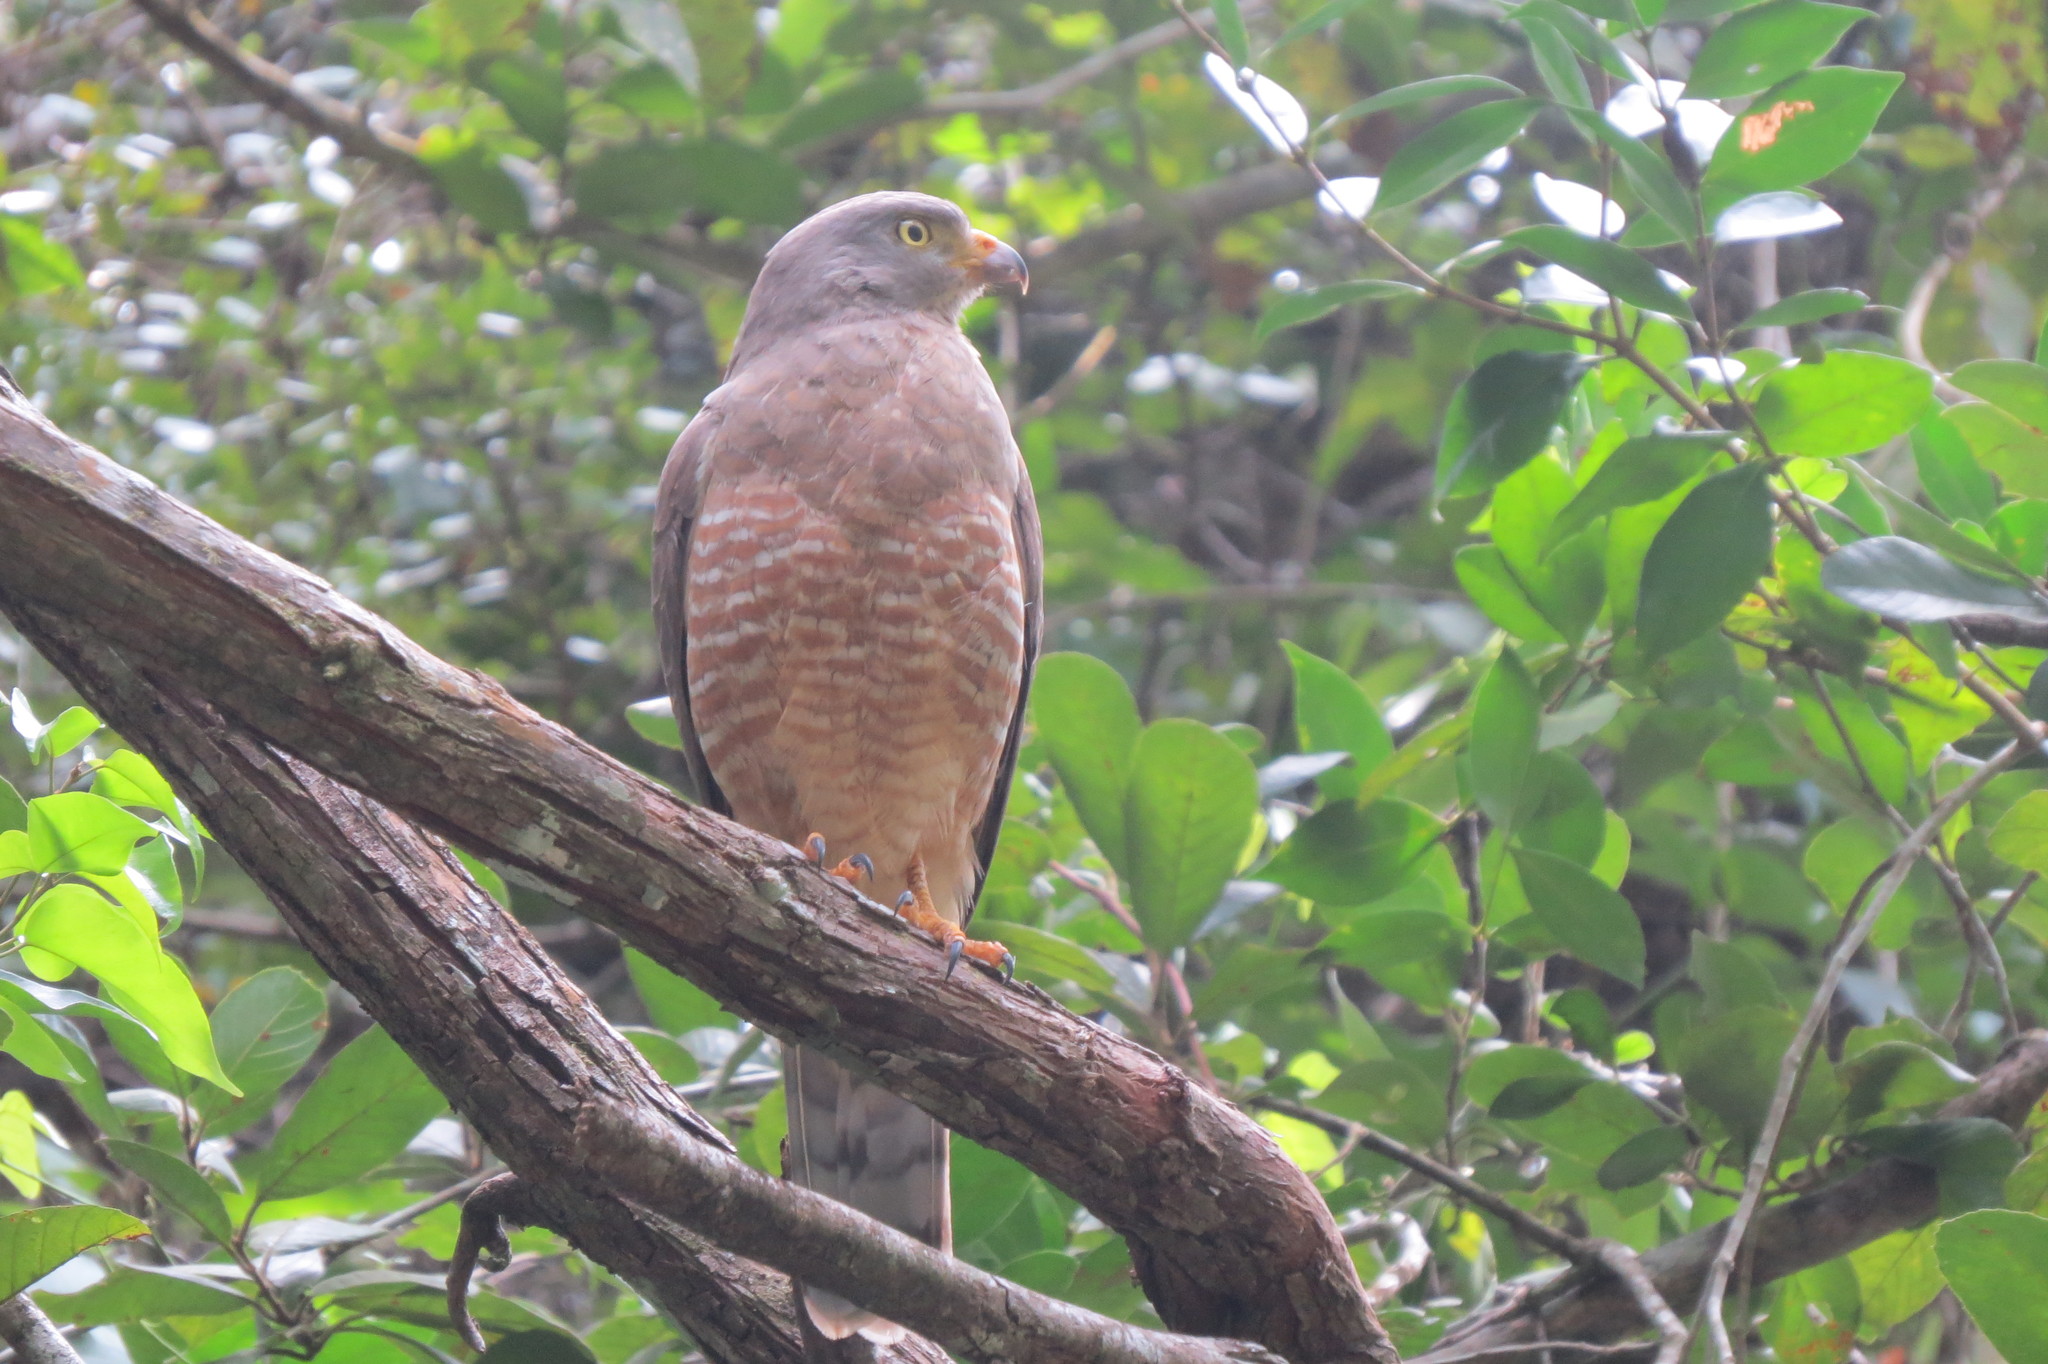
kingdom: Animalia
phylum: Chordata
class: Aves
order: Accipitriformes
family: Accipitridae
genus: Rupornis
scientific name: Rupornis magnirostris
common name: Roadside hawk
